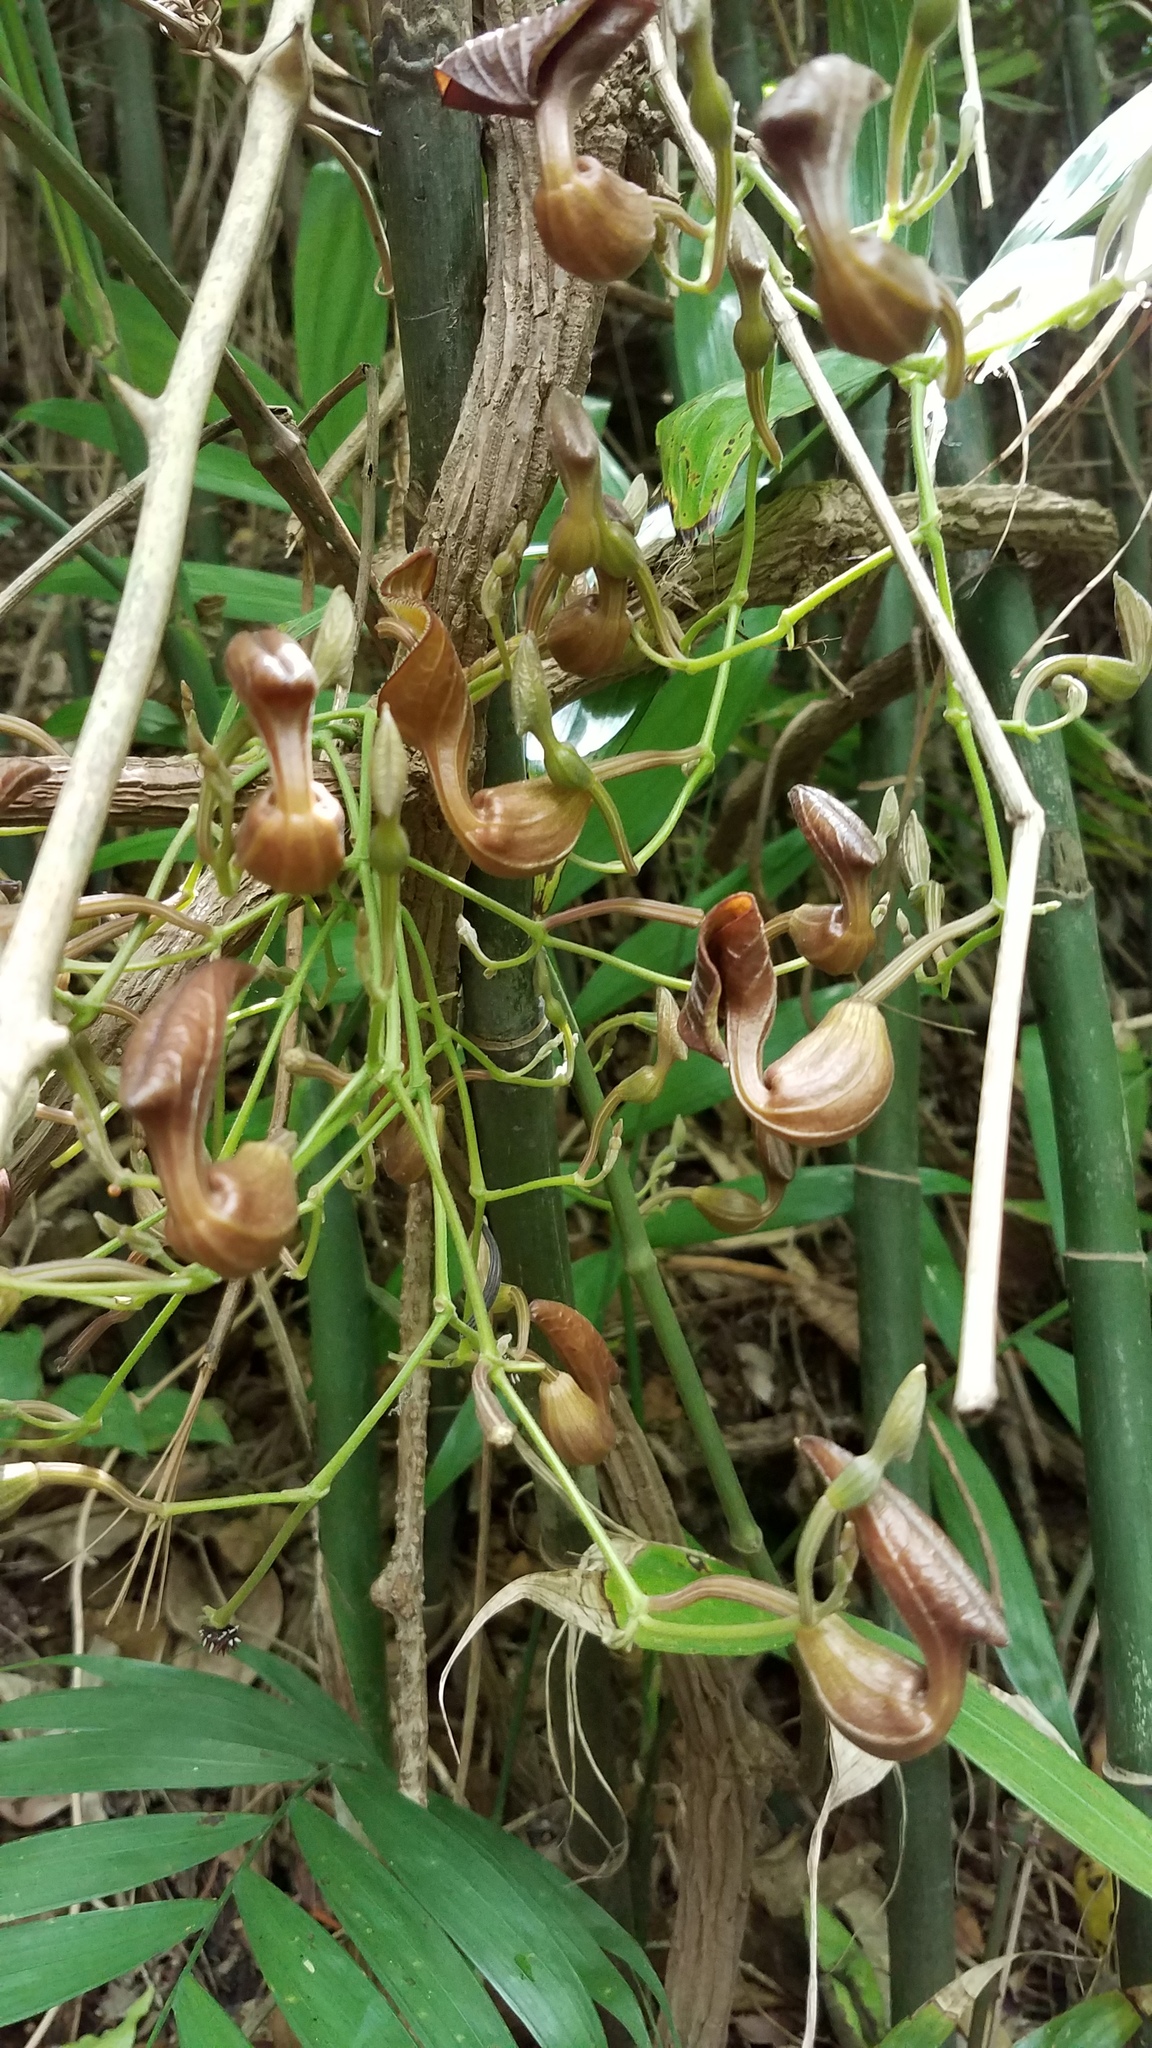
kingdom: Plantae
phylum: Tracheophyta
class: Magnoliopsida
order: Piperales
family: Aristolochiaceae
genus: Aristolochia
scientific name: Aristolochia maxima
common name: Florida dutchman's pipe
